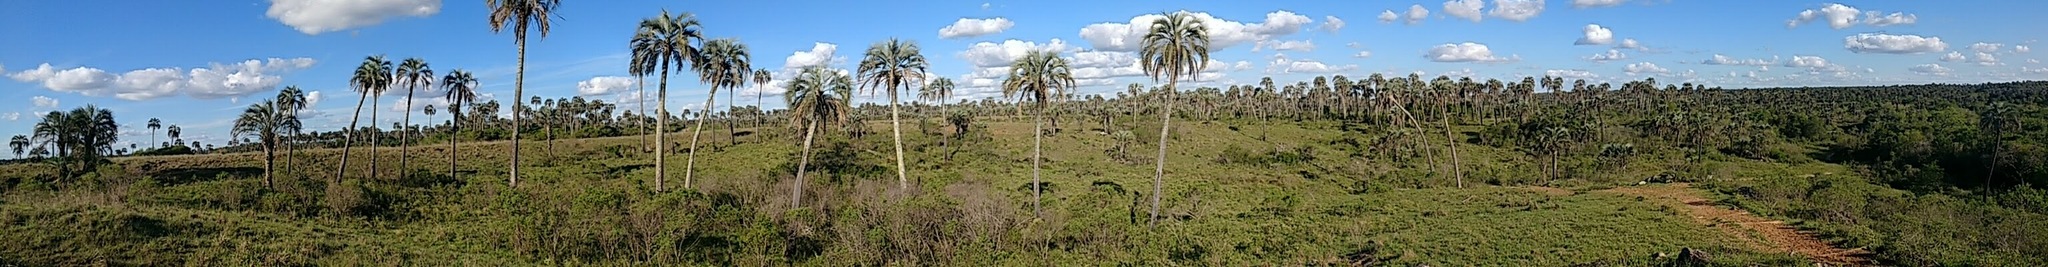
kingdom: Plantae
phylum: Tracheophyta
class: Liliopsida
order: Arecales
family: Arecaceae
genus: Butia
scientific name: Butia yatay
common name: Yatay palm
